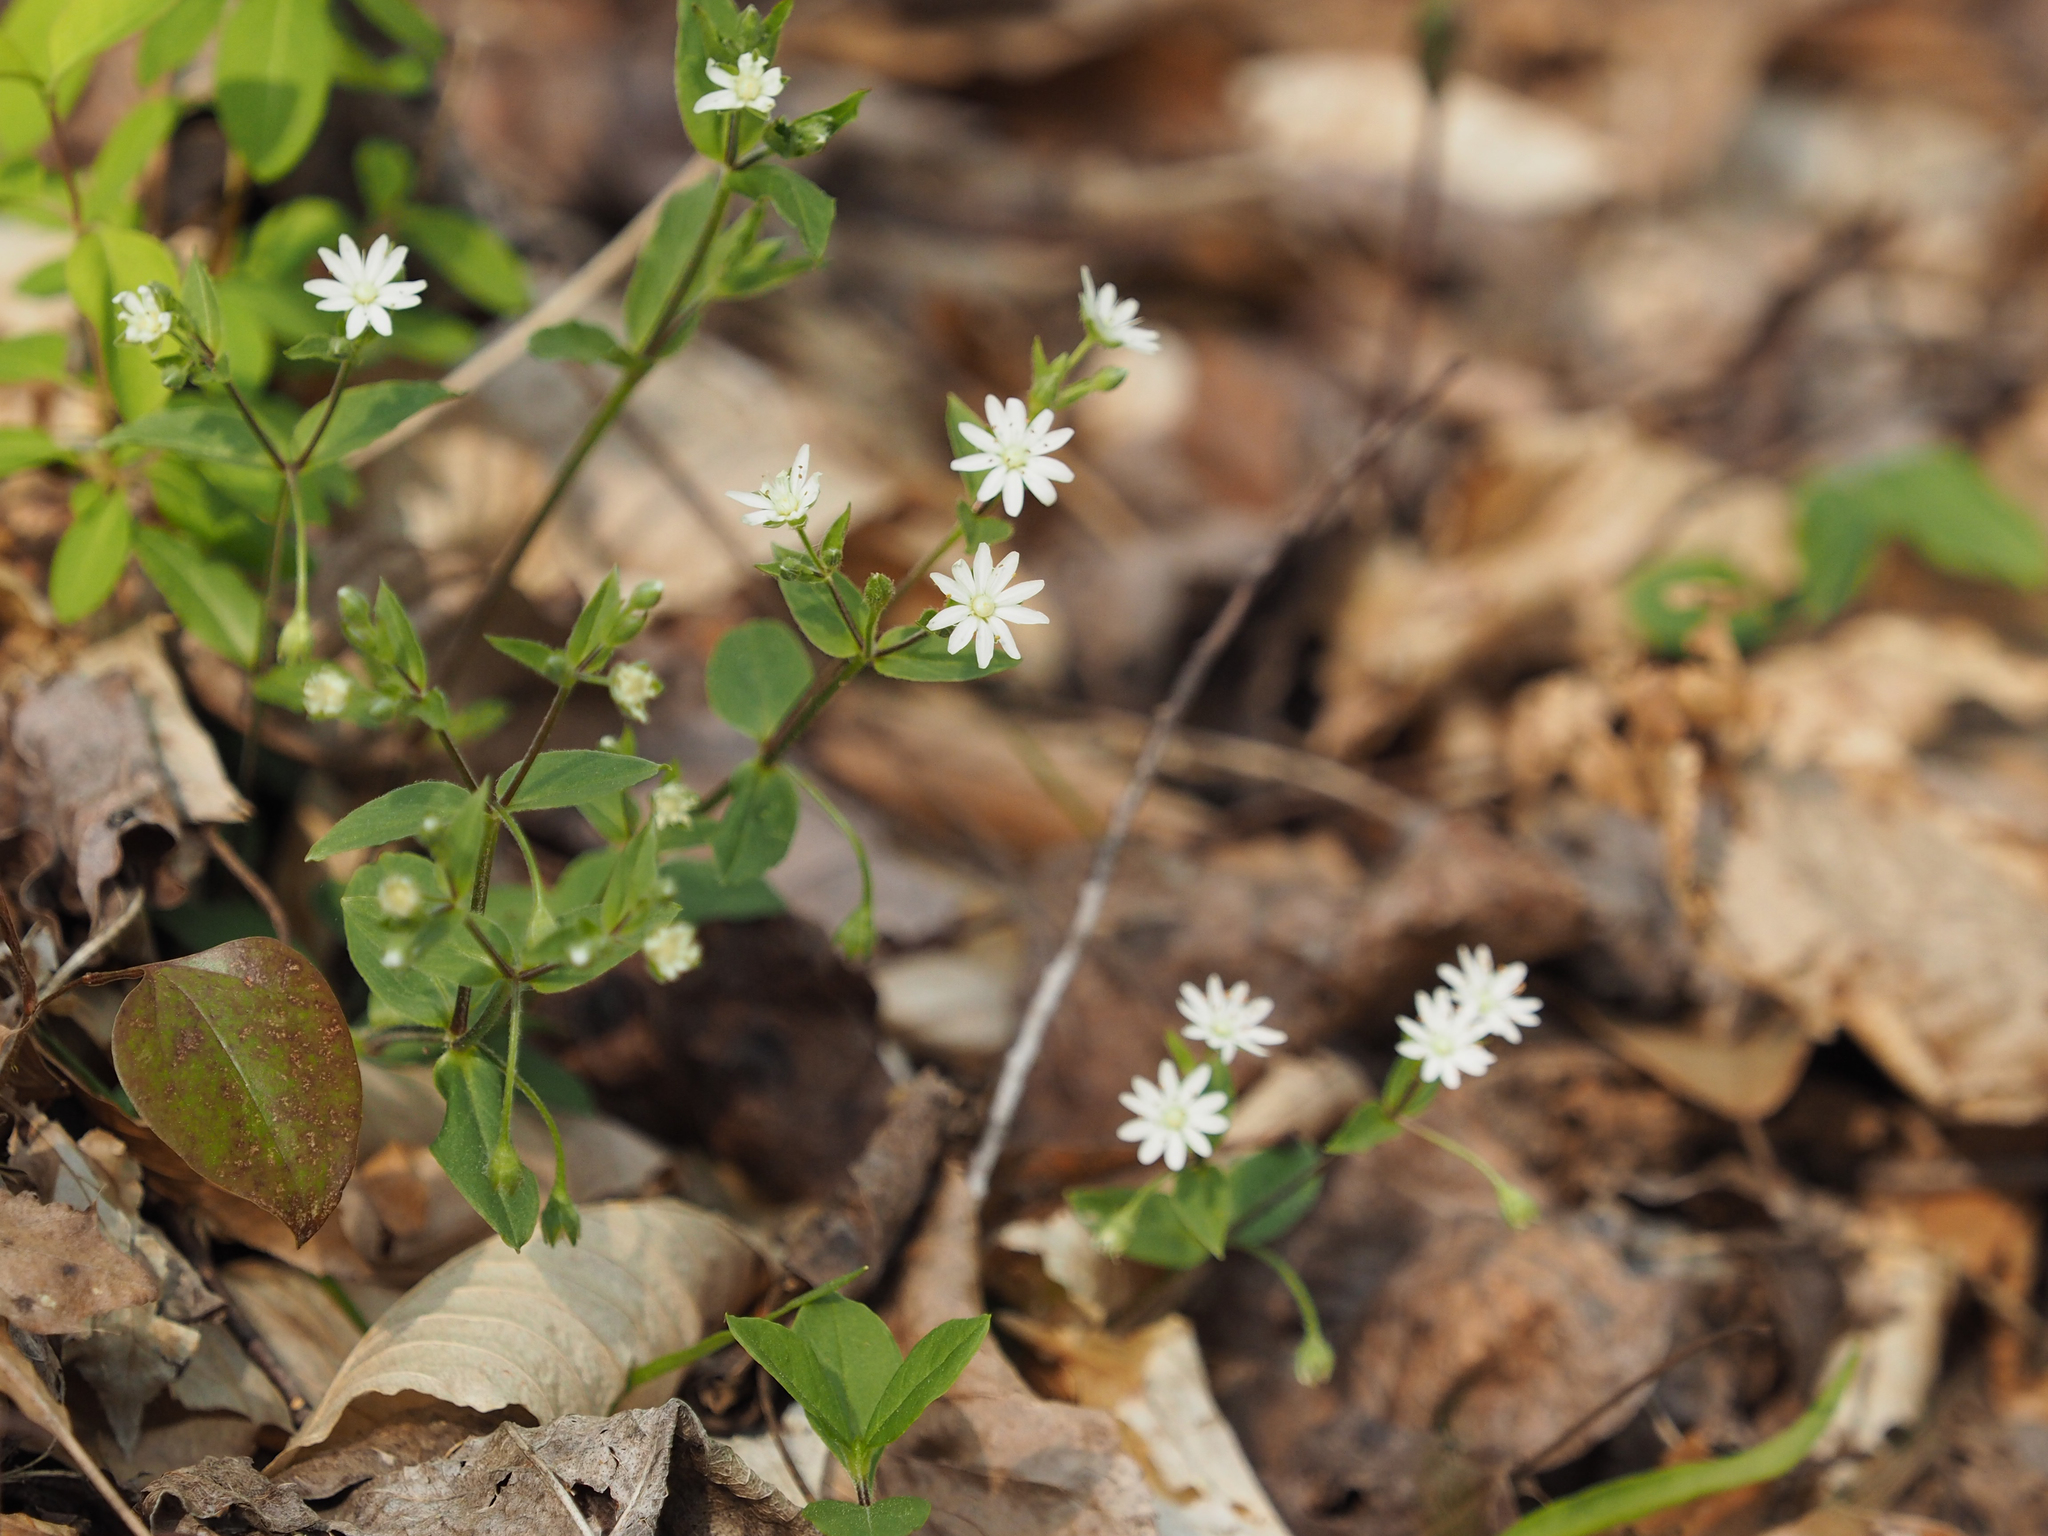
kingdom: Plantae
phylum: Tracheophyta
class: Magnoliopsida
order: Caryophyllales
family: Caryophyllaceae
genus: Stellaria
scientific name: Stellaria pubera
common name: Star chickweed
